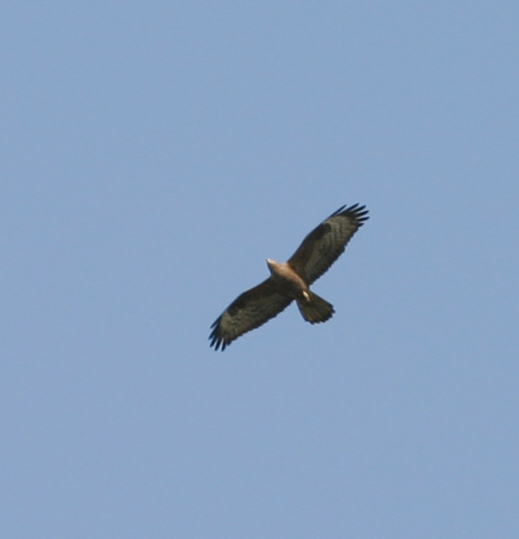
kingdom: Animalia
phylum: Chordata
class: Aves
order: Accipitriformes
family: Accipitridae
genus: Buteo
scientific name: Buteo buteo
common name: Common buzzard
